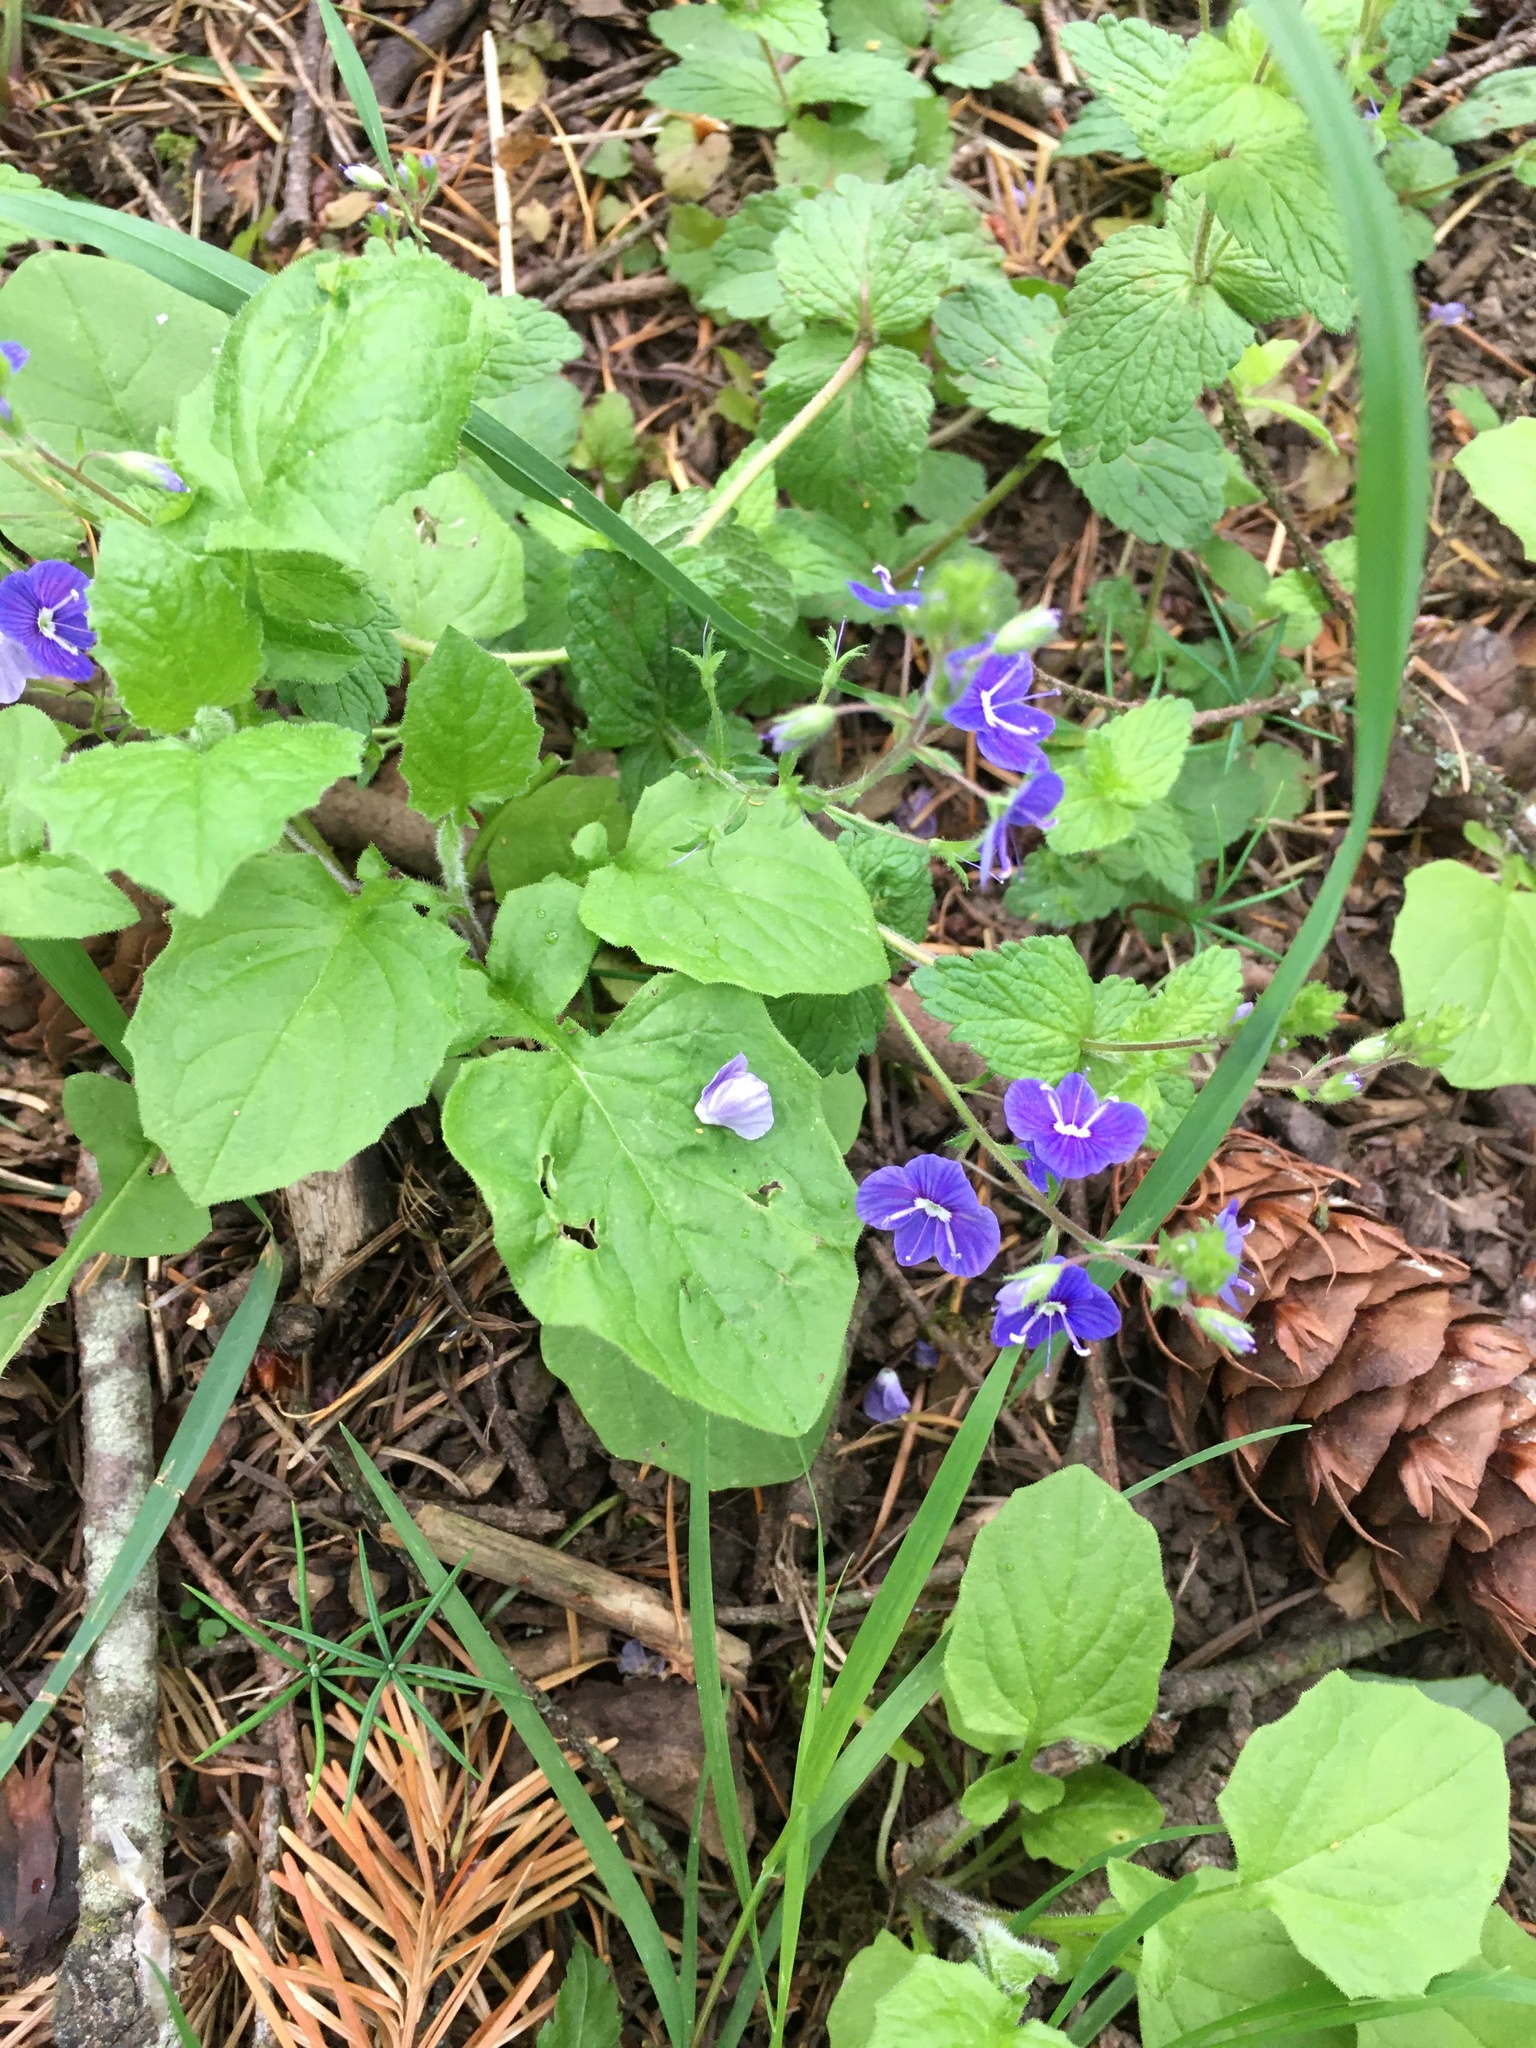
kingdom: Plantae
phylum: Tracheophyta
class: Magnoliopsida
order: Lamiales
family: Plantaginaceae
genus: Veronica
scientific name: Veronica chamaedrys
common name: Germander speedwell
